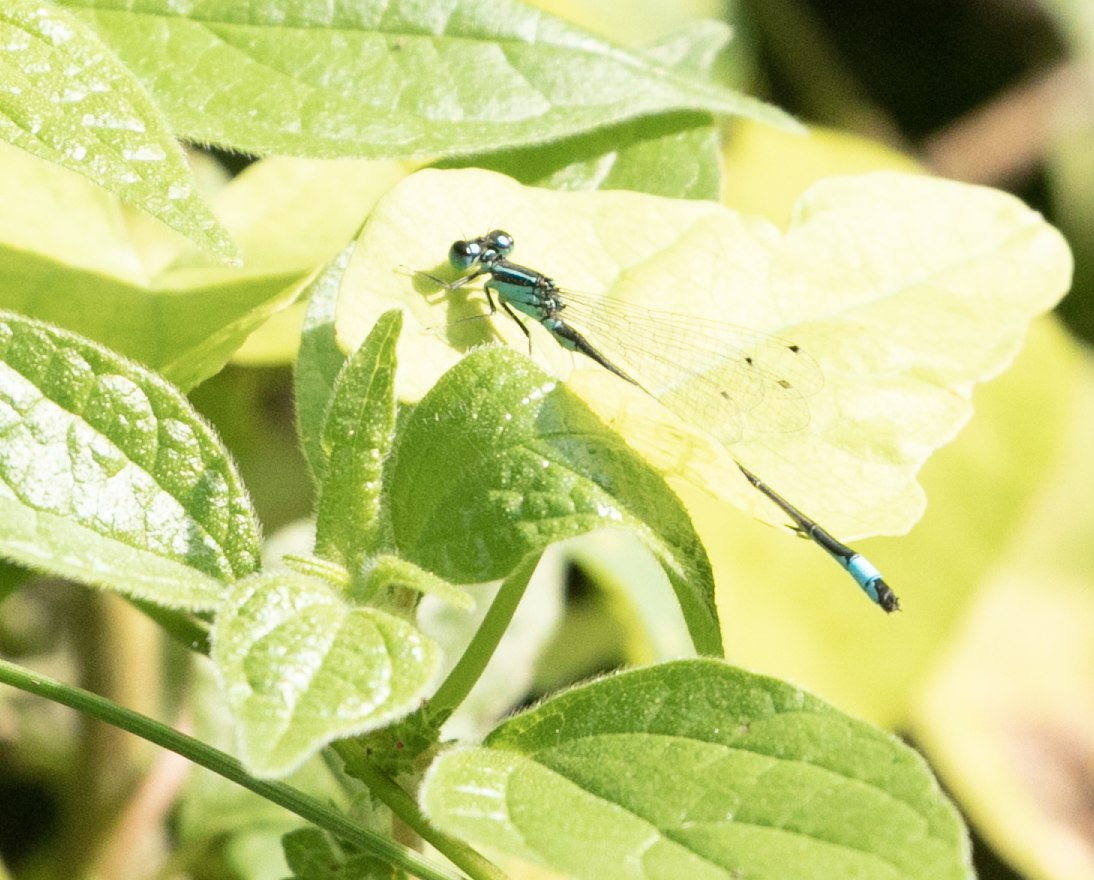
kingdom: Animalia
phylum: Arthropoda
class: Insecta
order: Odonata
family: Coenagrionidae
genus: Ischnura
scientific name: Ischnura elegans
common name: Blue-tailed damselfly
